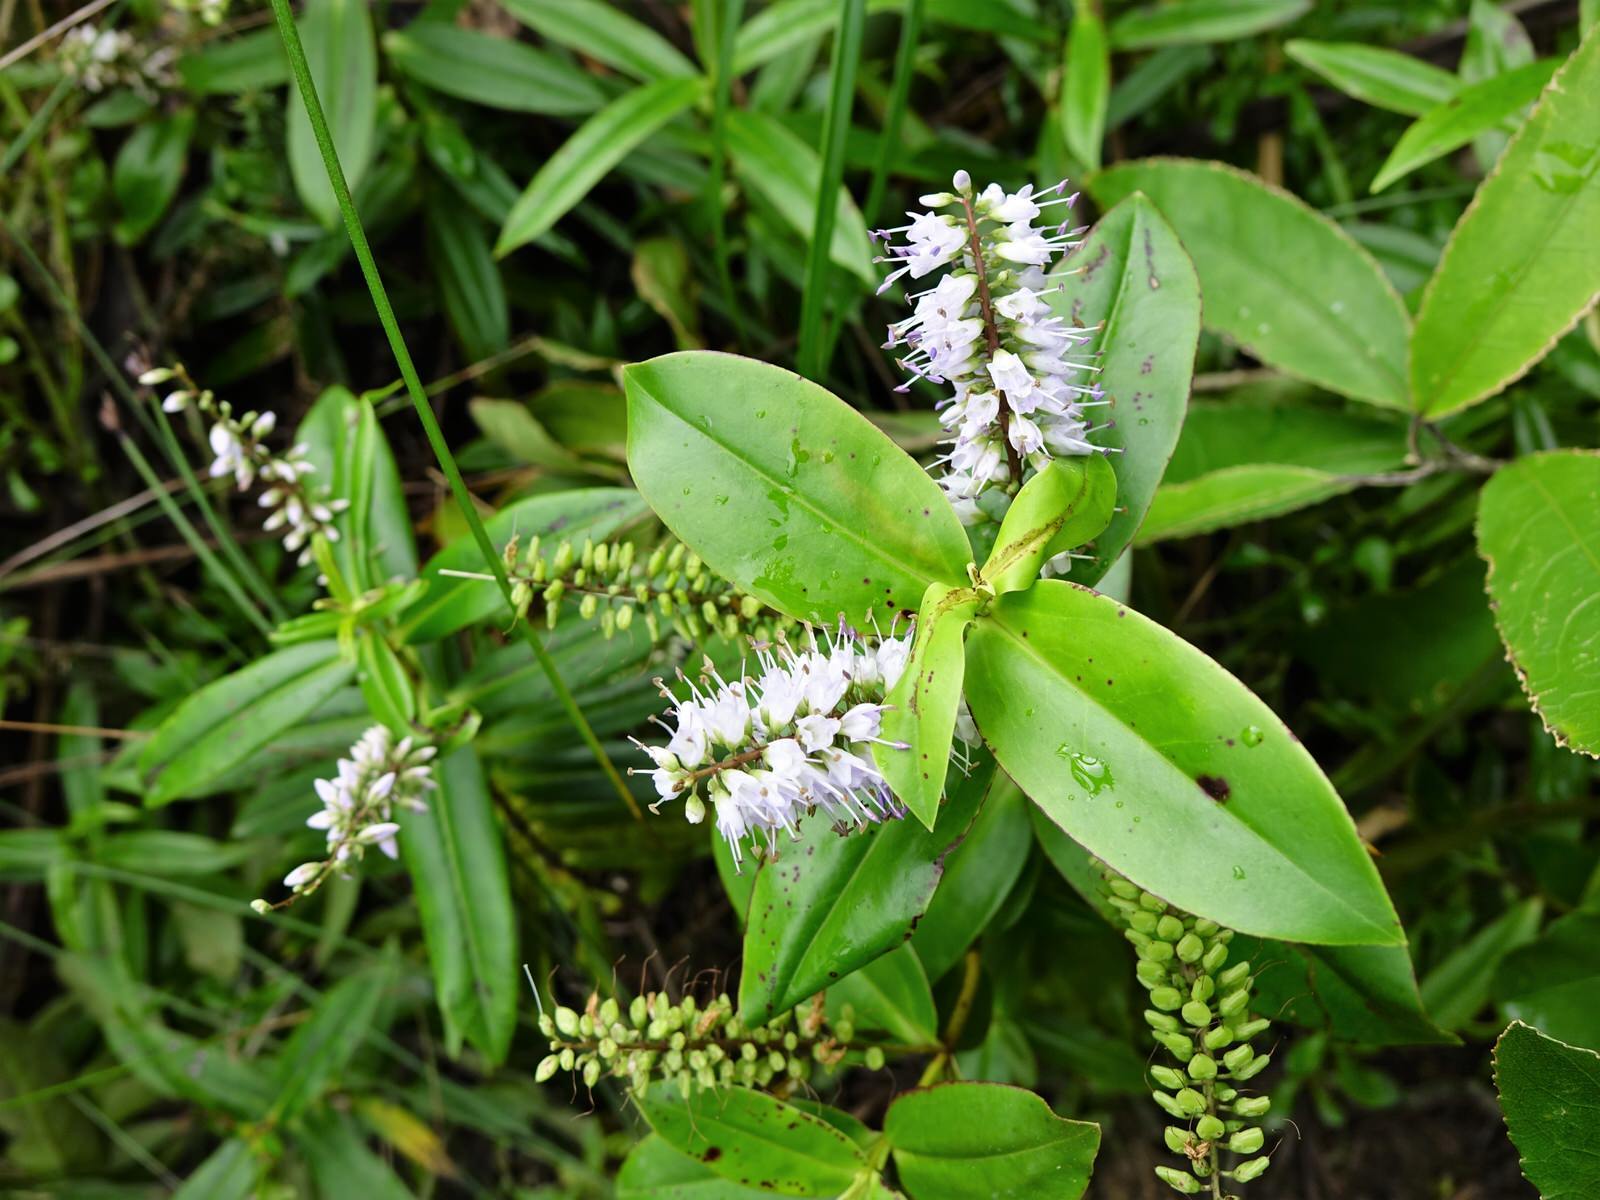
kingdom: Plantae
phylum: Tracheophyta
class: Magnoliopsida
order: Lamiales
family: Plantaginaceae
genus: Veronica
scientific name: Veronica macrocarpa
